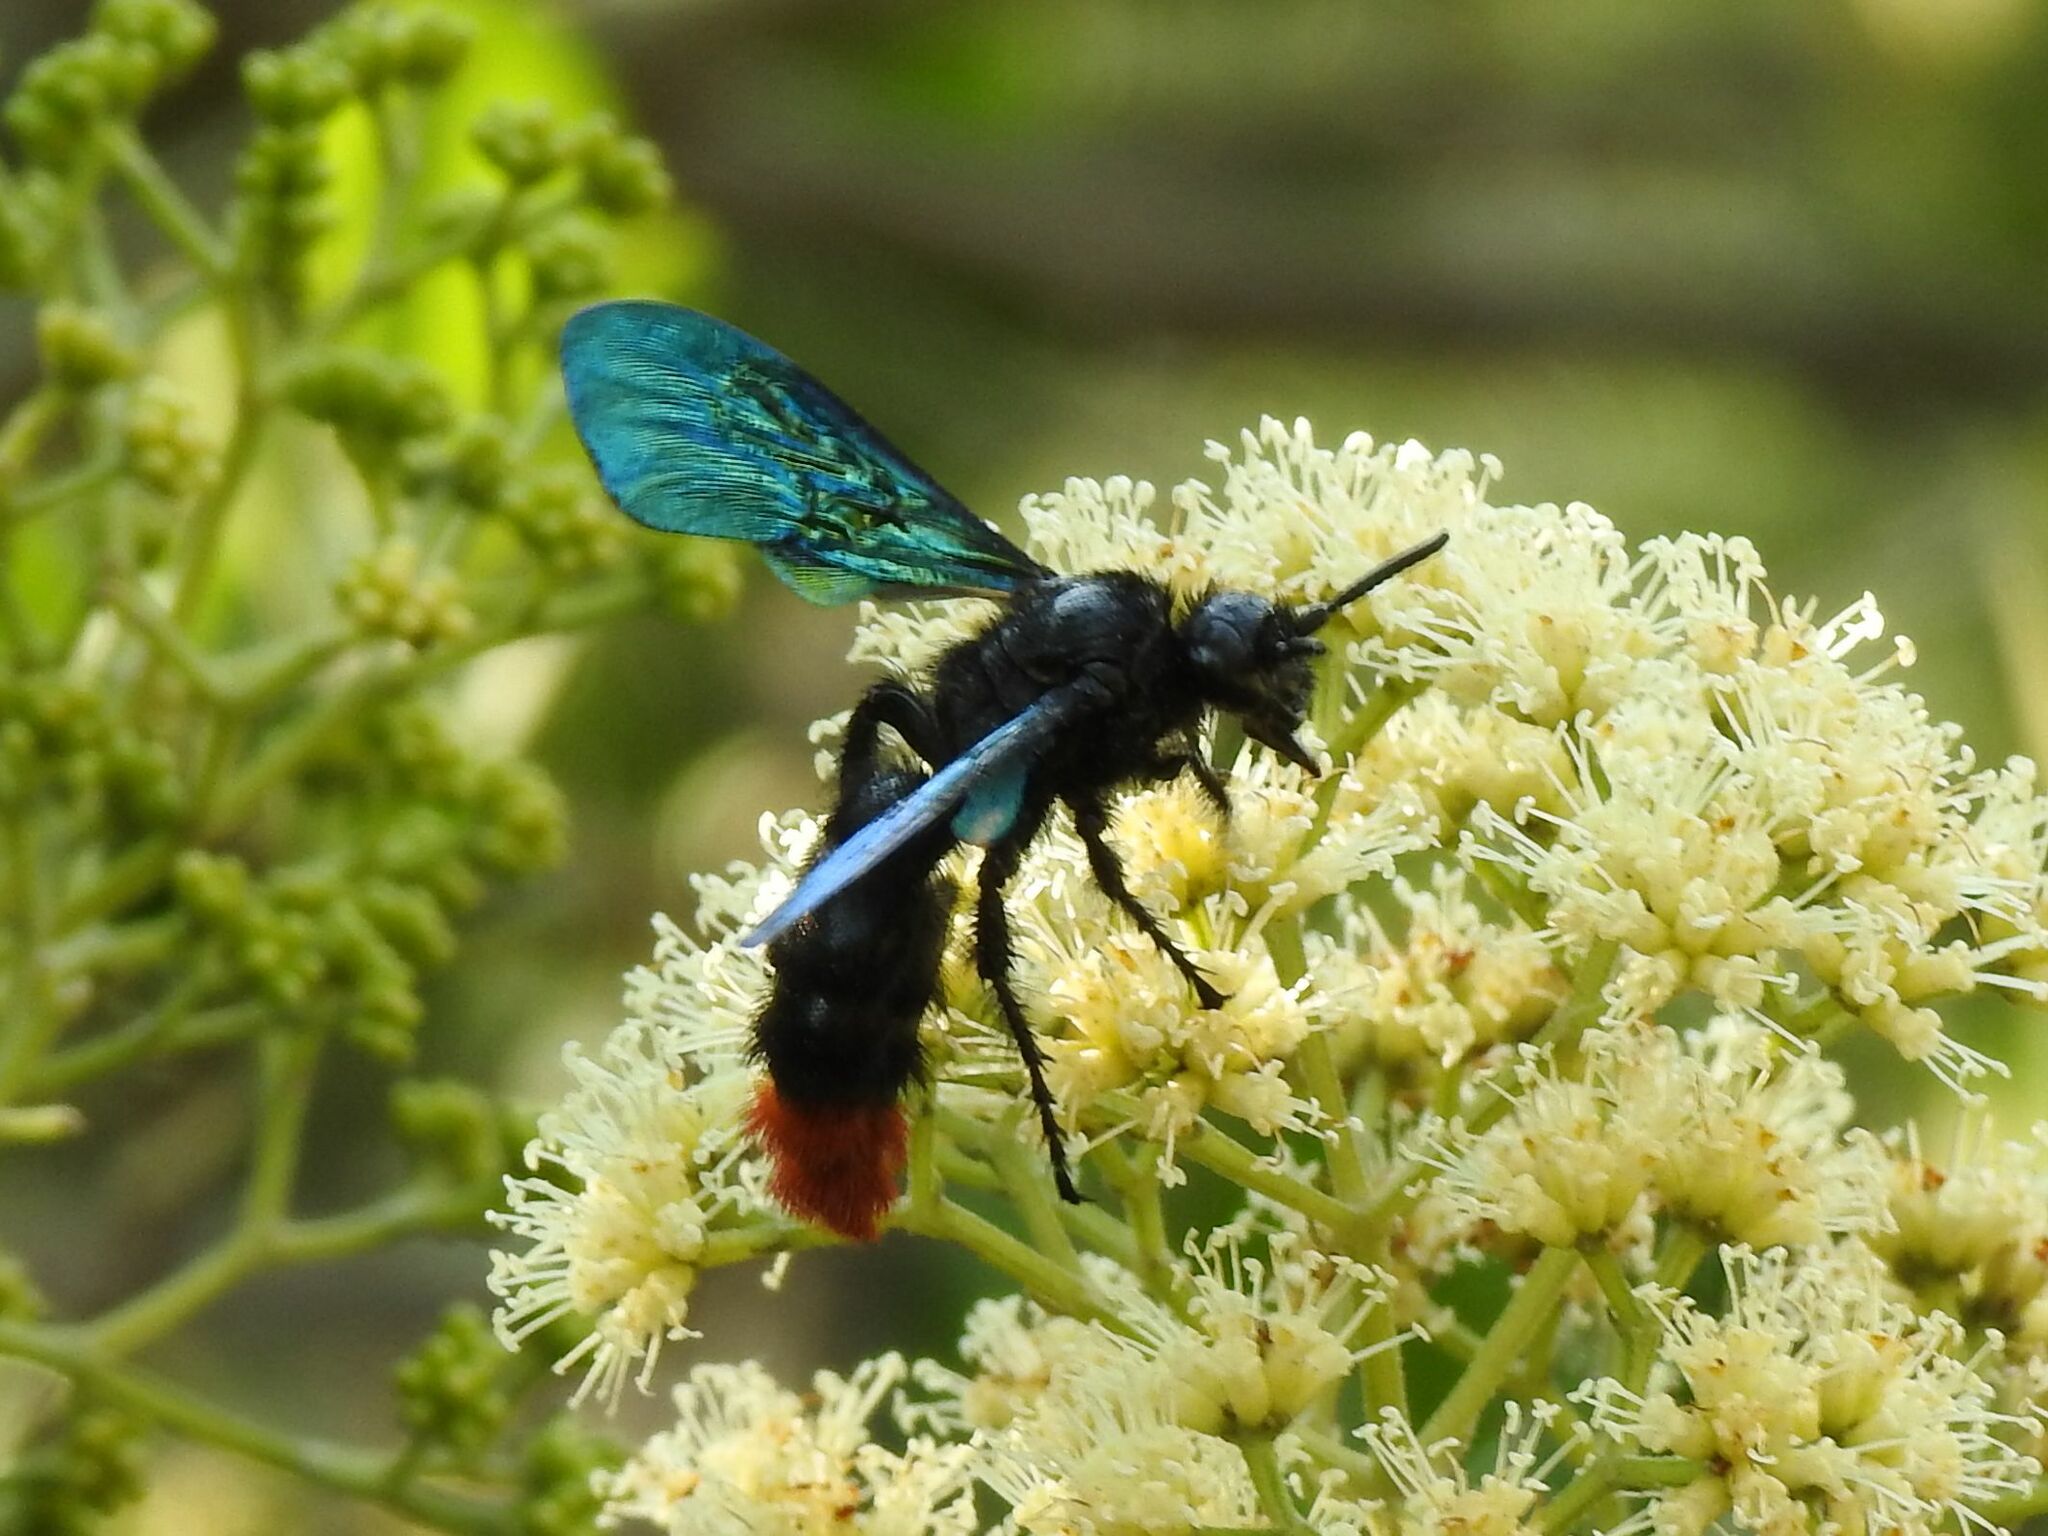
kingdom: Animalia
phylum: Arthropoda
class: Insecta
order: Hymenoptera
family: Scoliidae
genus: Pyrrhoscolia
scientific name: Pyrrhoscolia
